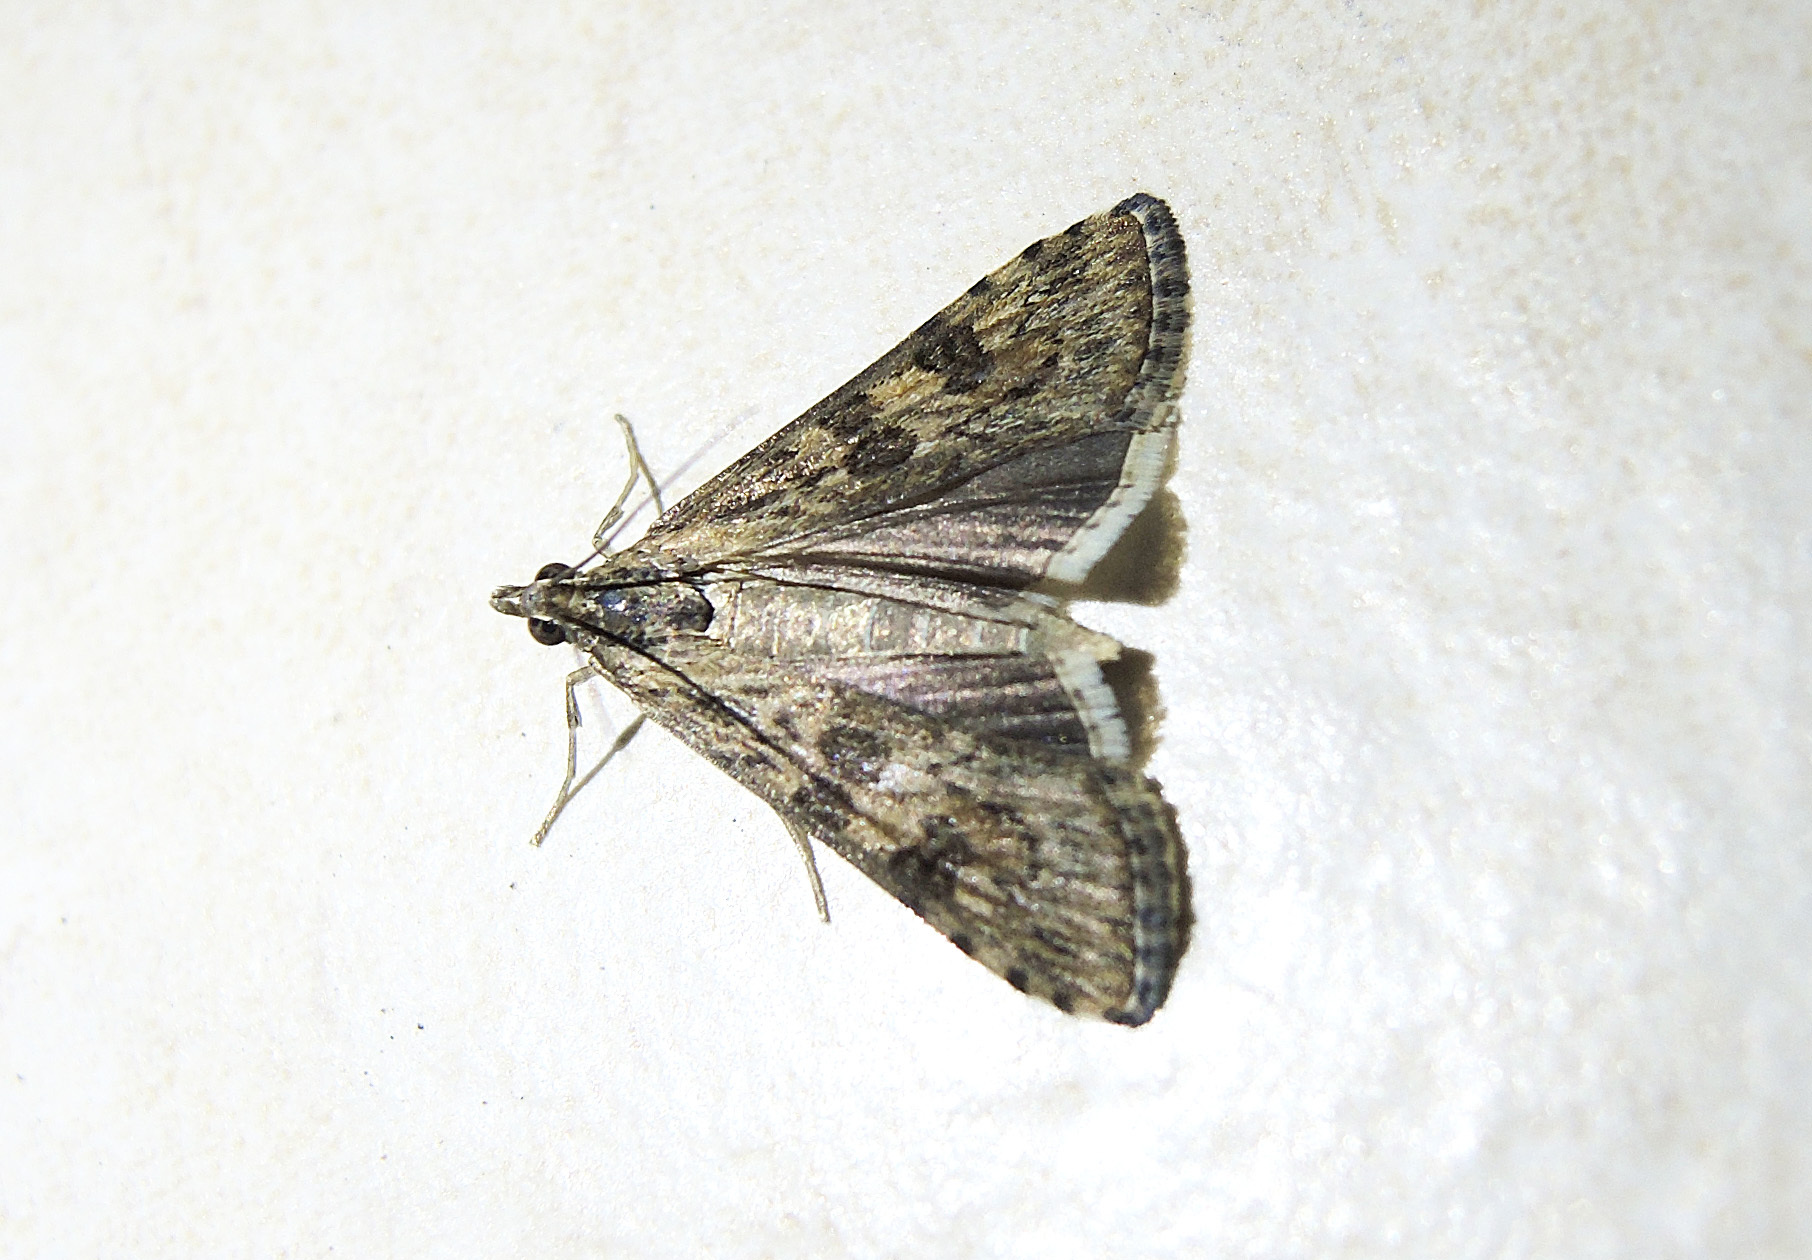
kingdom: Animalia
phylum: Arthropoda
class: Insecta
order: Lepidoptera
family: Crambidae
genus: Nomophila
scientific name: Nomophila noctuella
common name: Rush veneer
